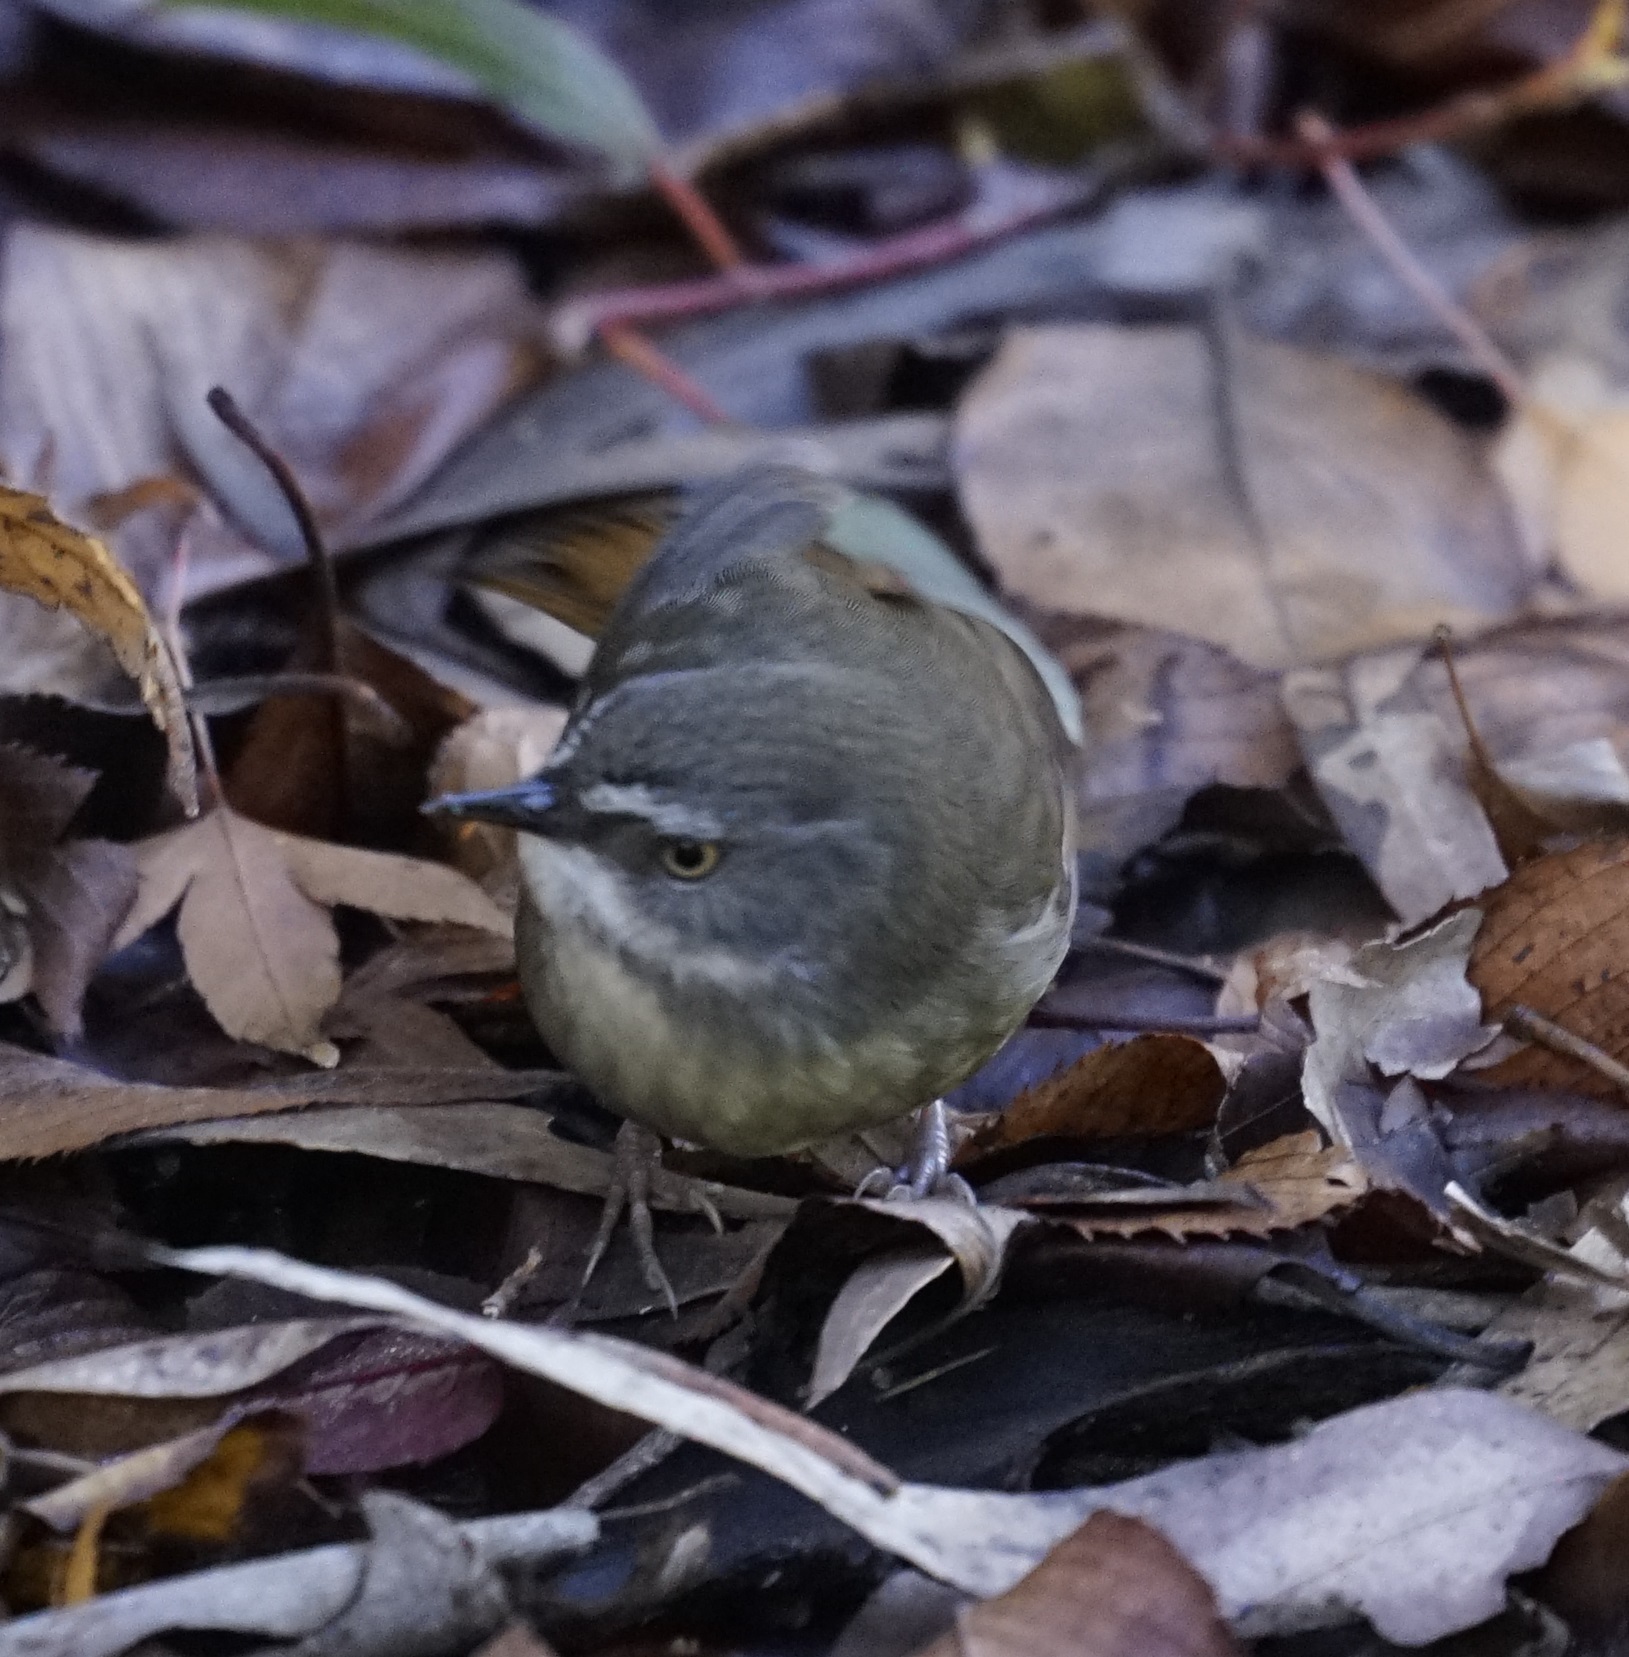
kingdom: Animalia
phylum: Chordata
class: Aves
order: Passeriformes
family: Acanthizidae
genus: Sericornis
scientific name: Sericornis frontalis
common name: White-browed scrubwren
